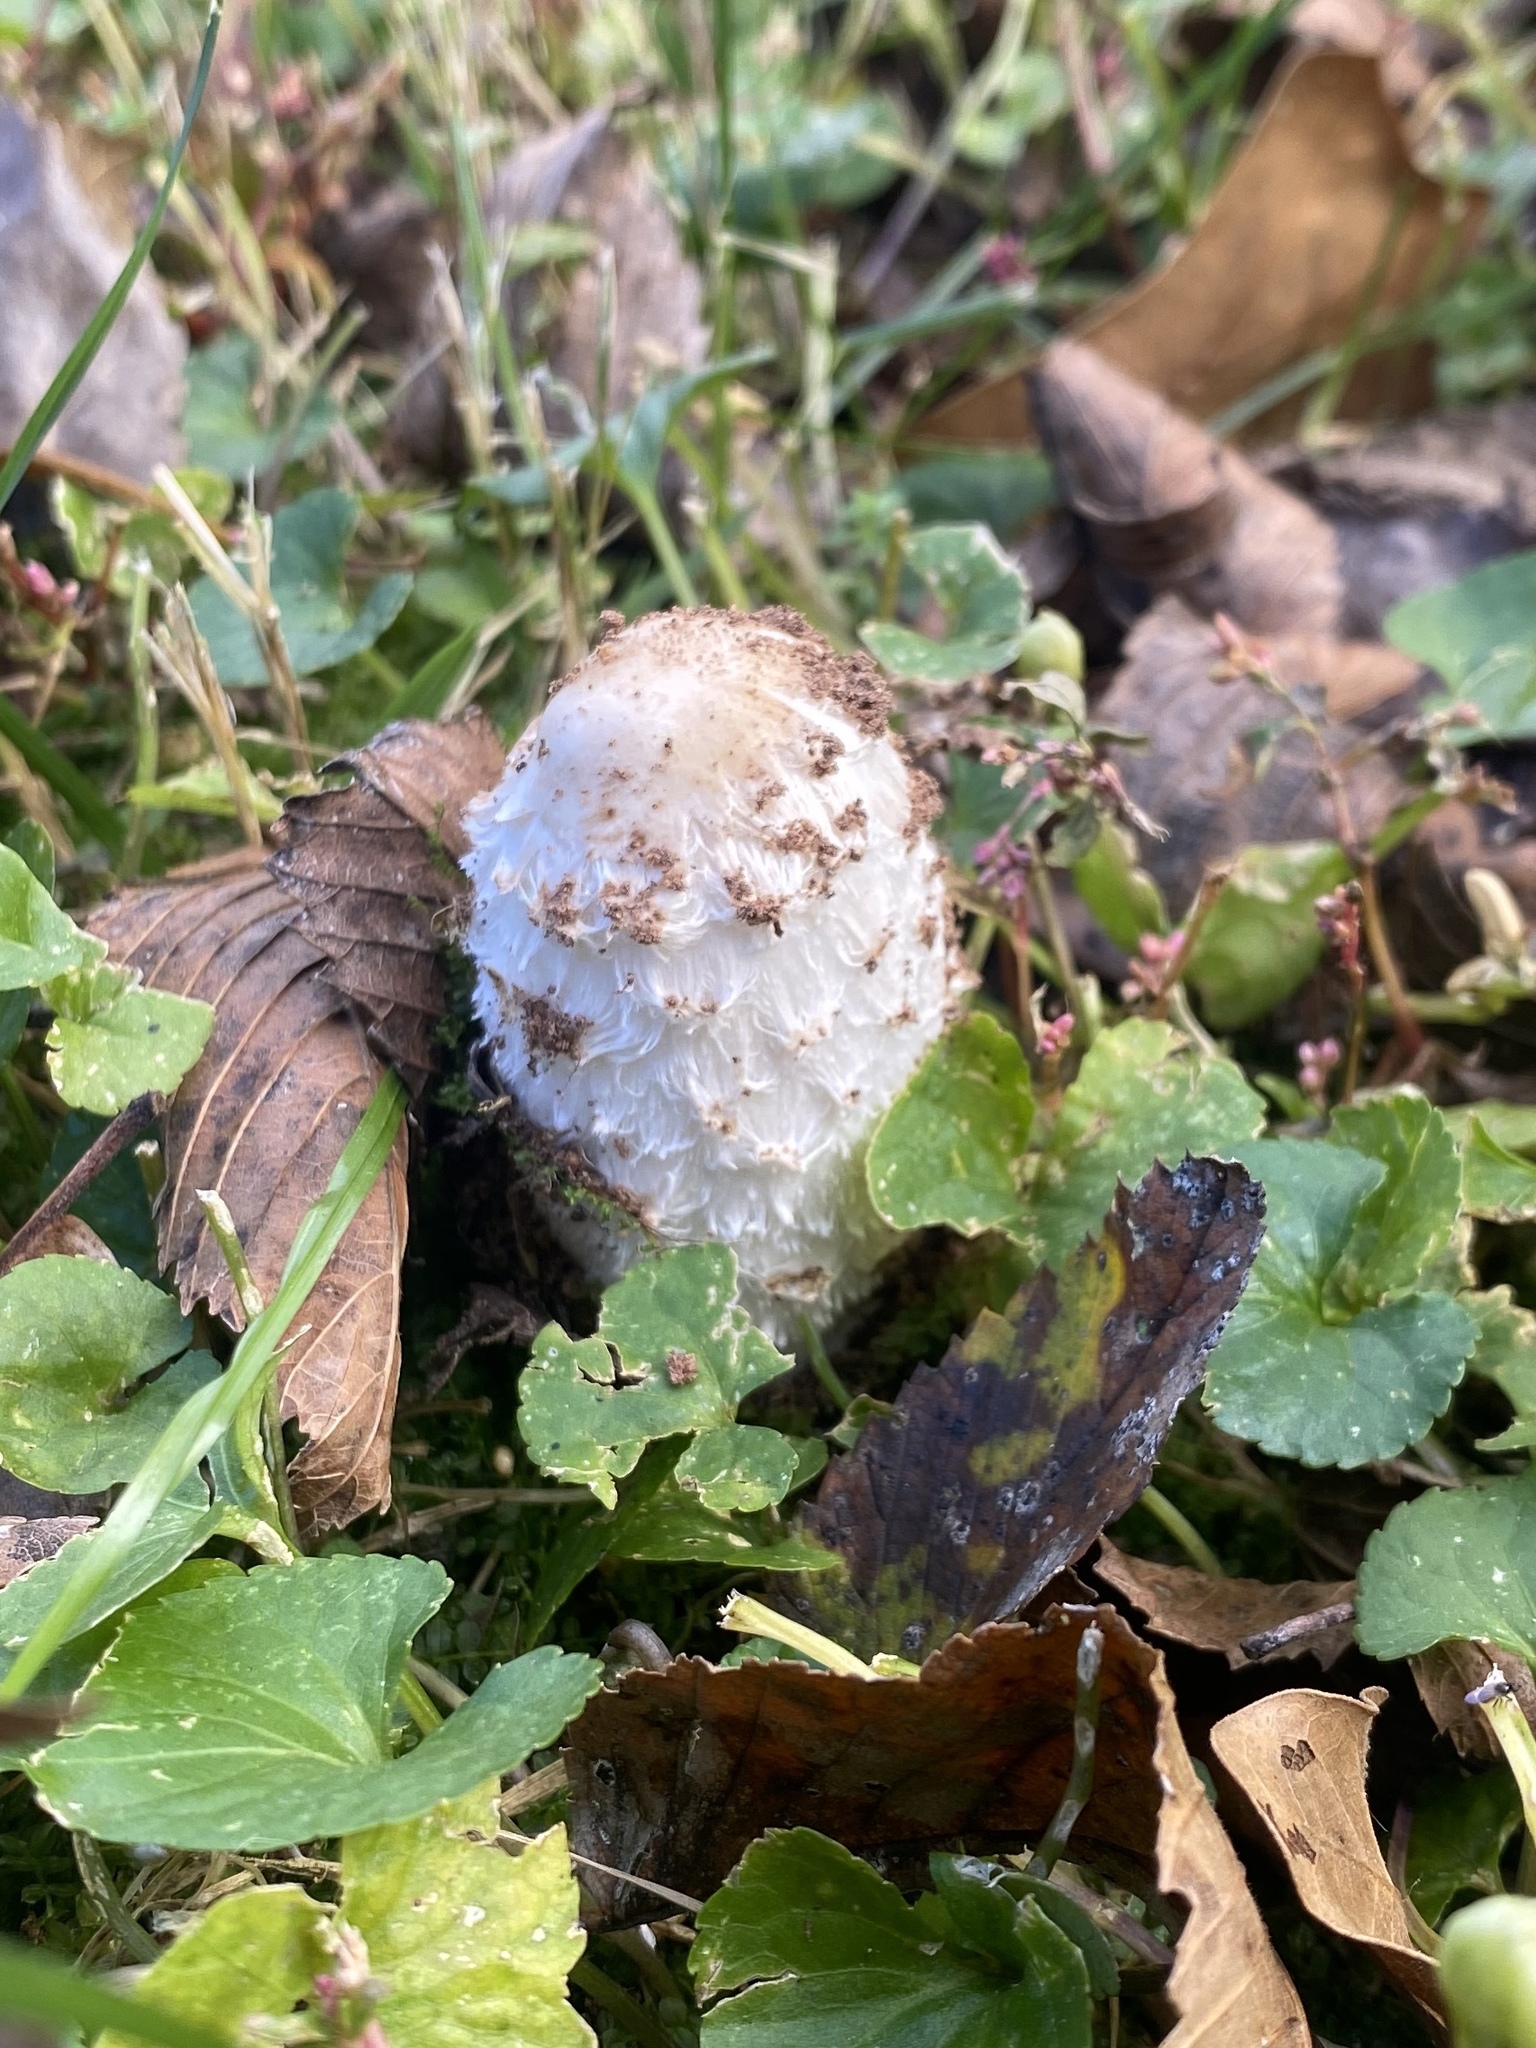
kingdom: Fungi
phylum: Basidiomycota
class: Agaricomycetes
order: Agaricales
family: Agaricaceae
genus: Coprinus
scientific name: Coprinus comatus
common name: Lawyer's wig
